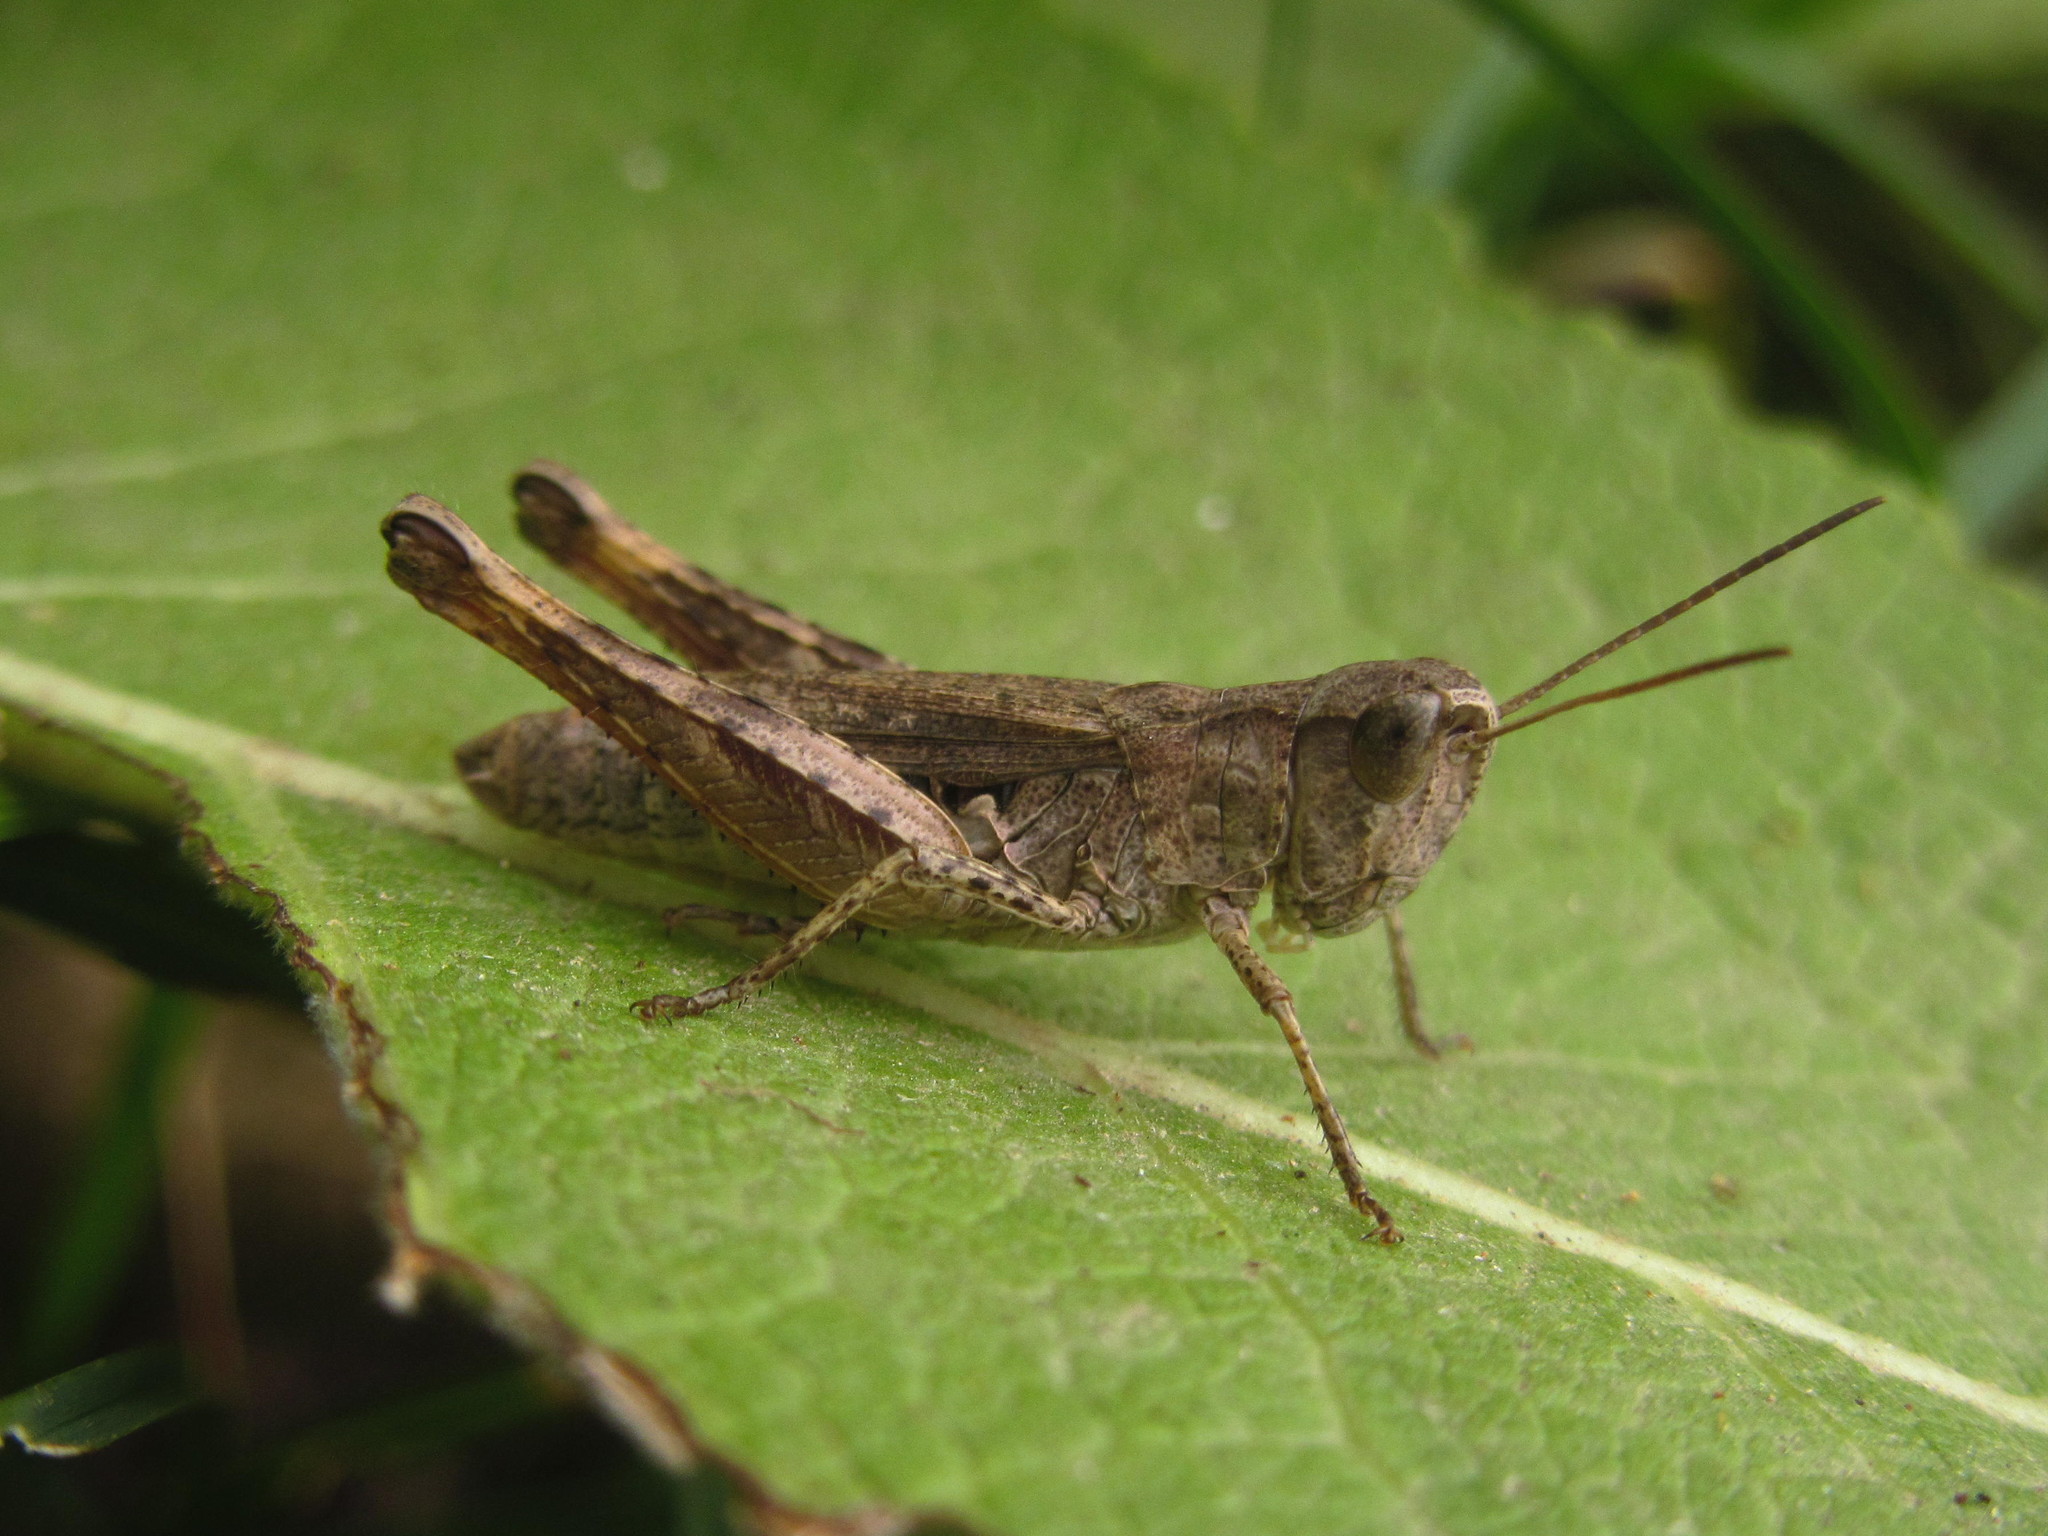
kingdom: Animalia
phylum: Arthropoda
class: Insecta
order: Orthoptera
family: Acrididae
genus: Chorthippus
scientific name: Chorthippus macrocerus
